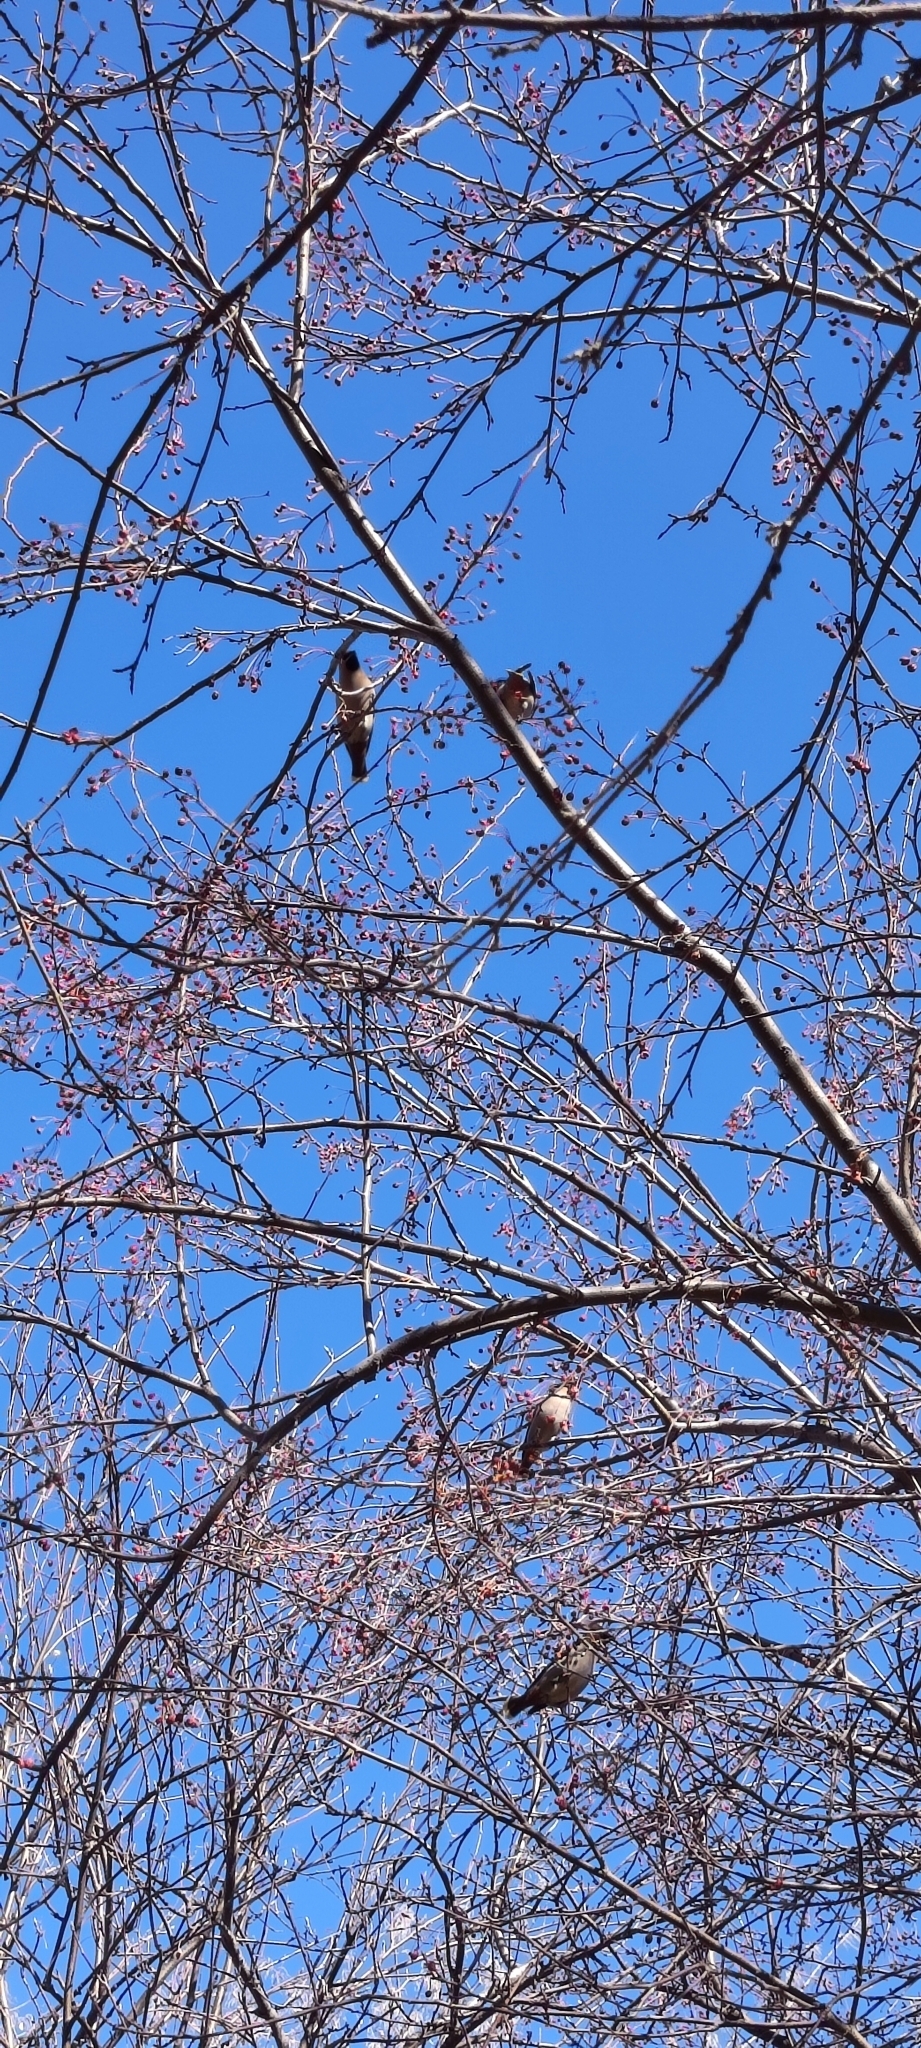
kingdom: Animalia
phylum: Chordata
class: Aves
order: Passeriformes
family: Bombycillidae
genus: Bombycilla
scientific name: Bombycilla garrulus
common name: Bohemian waxwing
